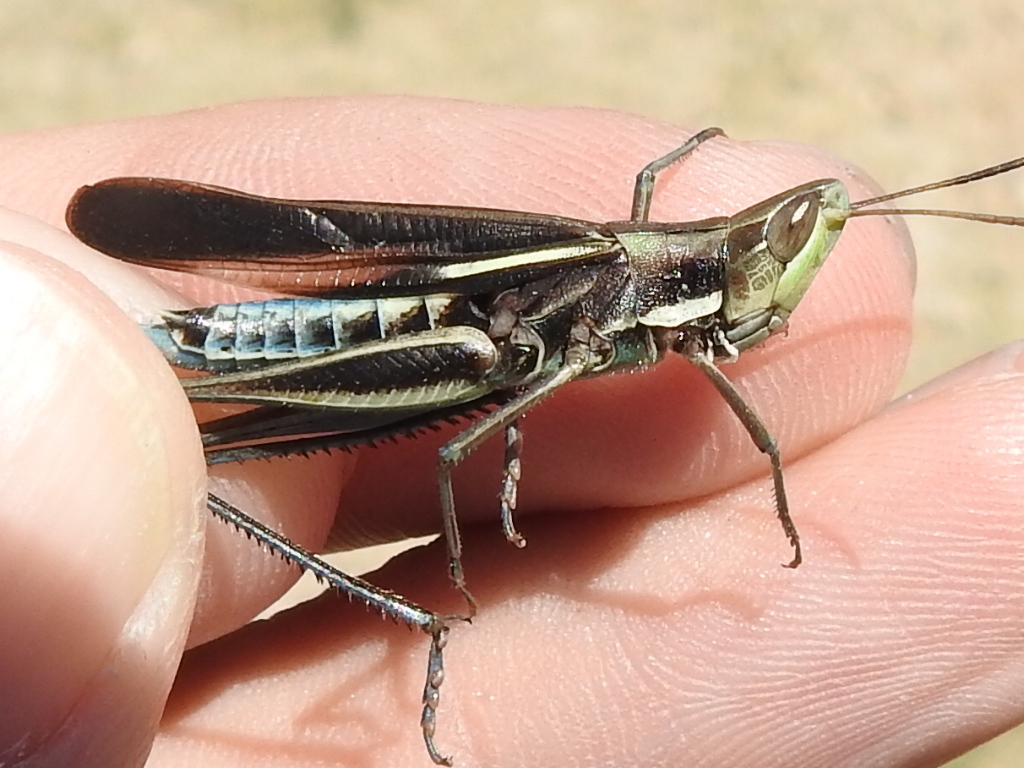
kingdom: Animalia
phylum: Arthropoda
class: Insecta
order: Orthoptera
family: Acrididae
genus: Syrbula
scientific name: Syrbula montezuma
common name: Montezuma's grasshopper
